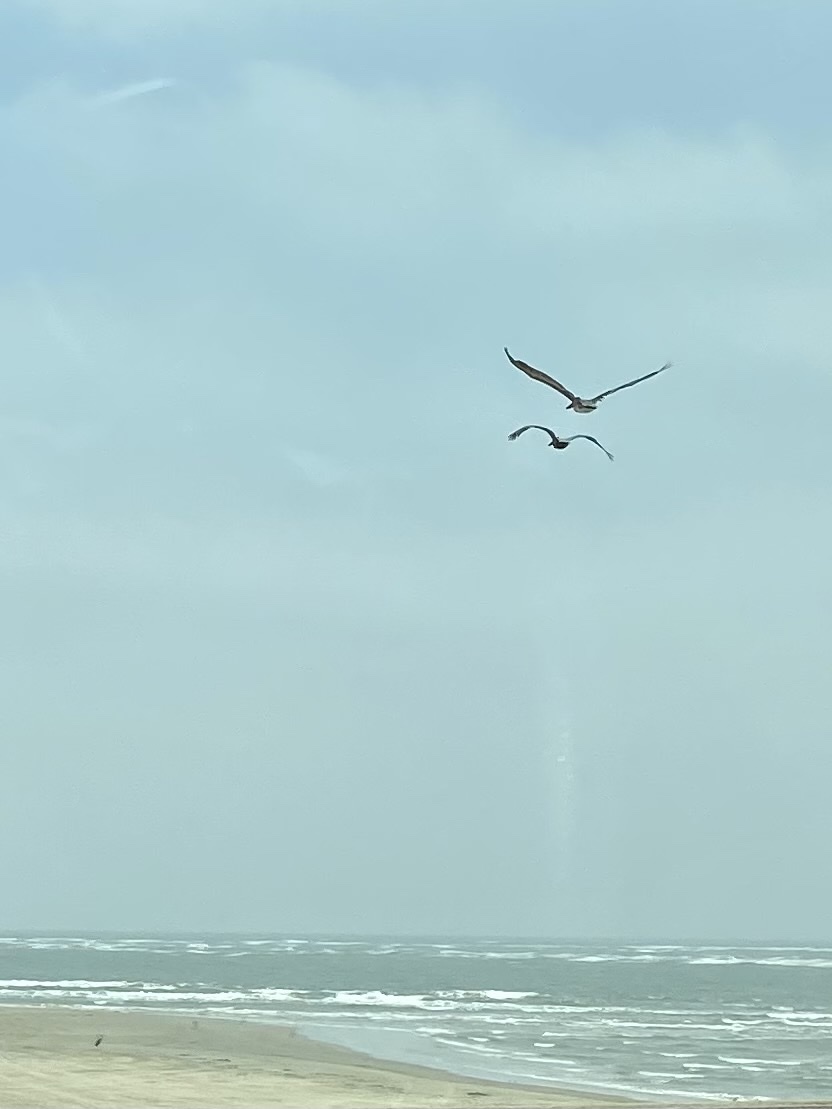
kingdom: Animalia
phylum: Chordata
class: Aves
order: Pelecaniformes
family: Pelecanidae
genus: Pelecanus
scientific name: Pelecanus occidentalis
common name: Brown pelican
